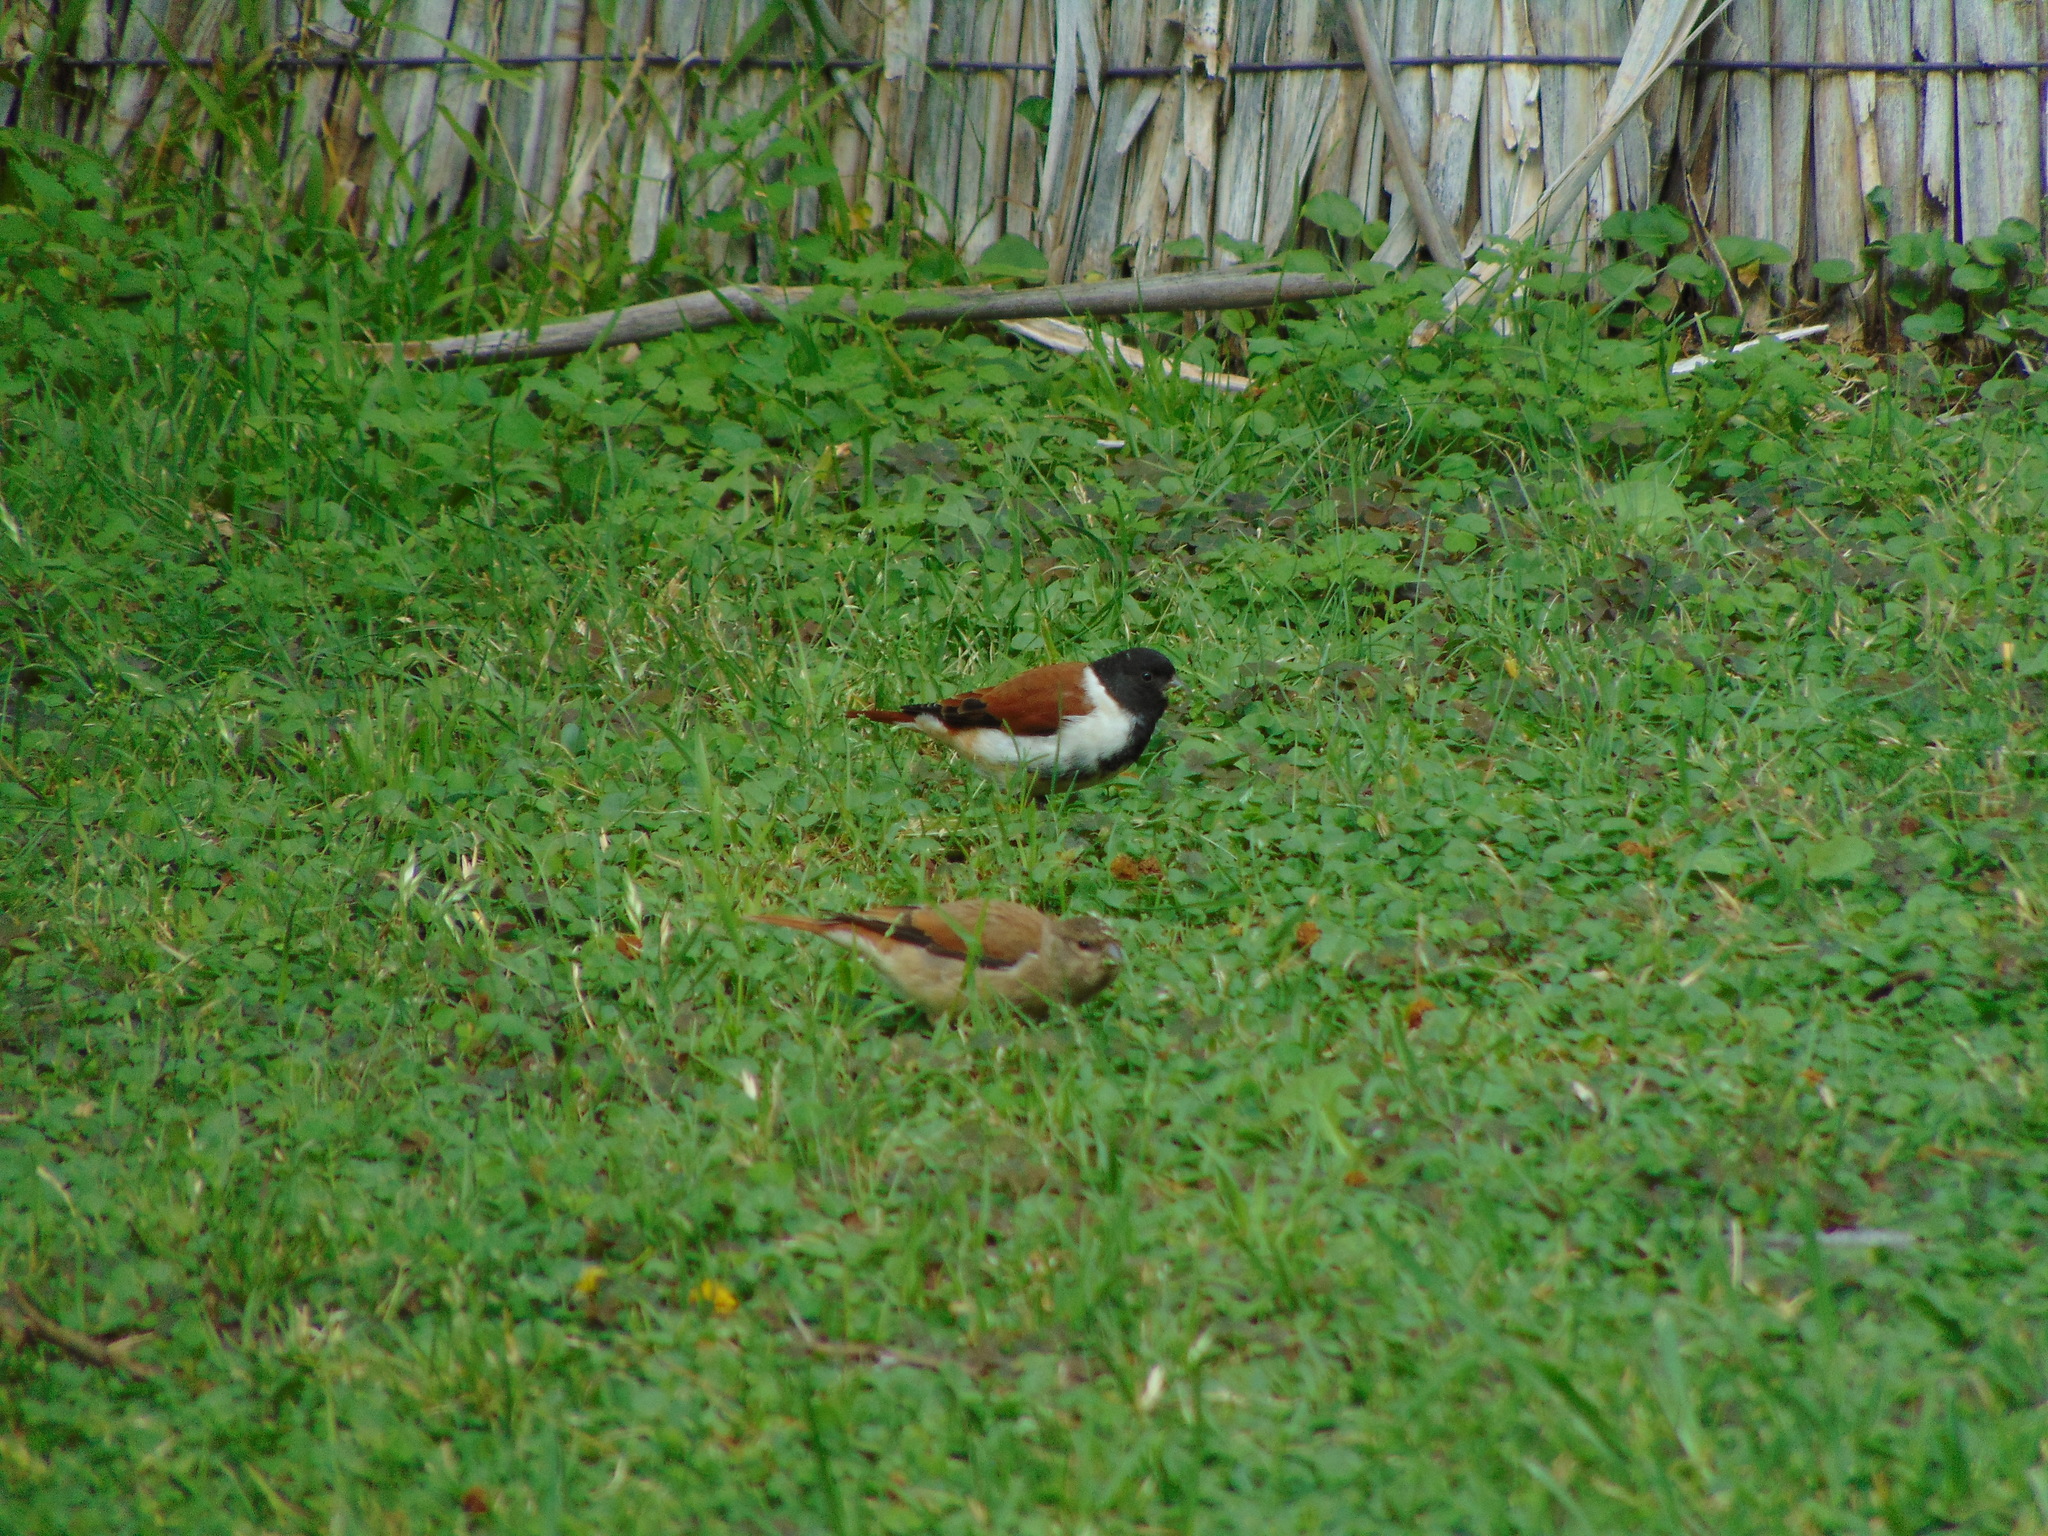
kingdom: Animalia
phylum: Chordata
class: Aves
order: Passeriformes
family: Fringillidae
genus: Serinus
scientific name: Serinus alario
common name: Black-headed canary
